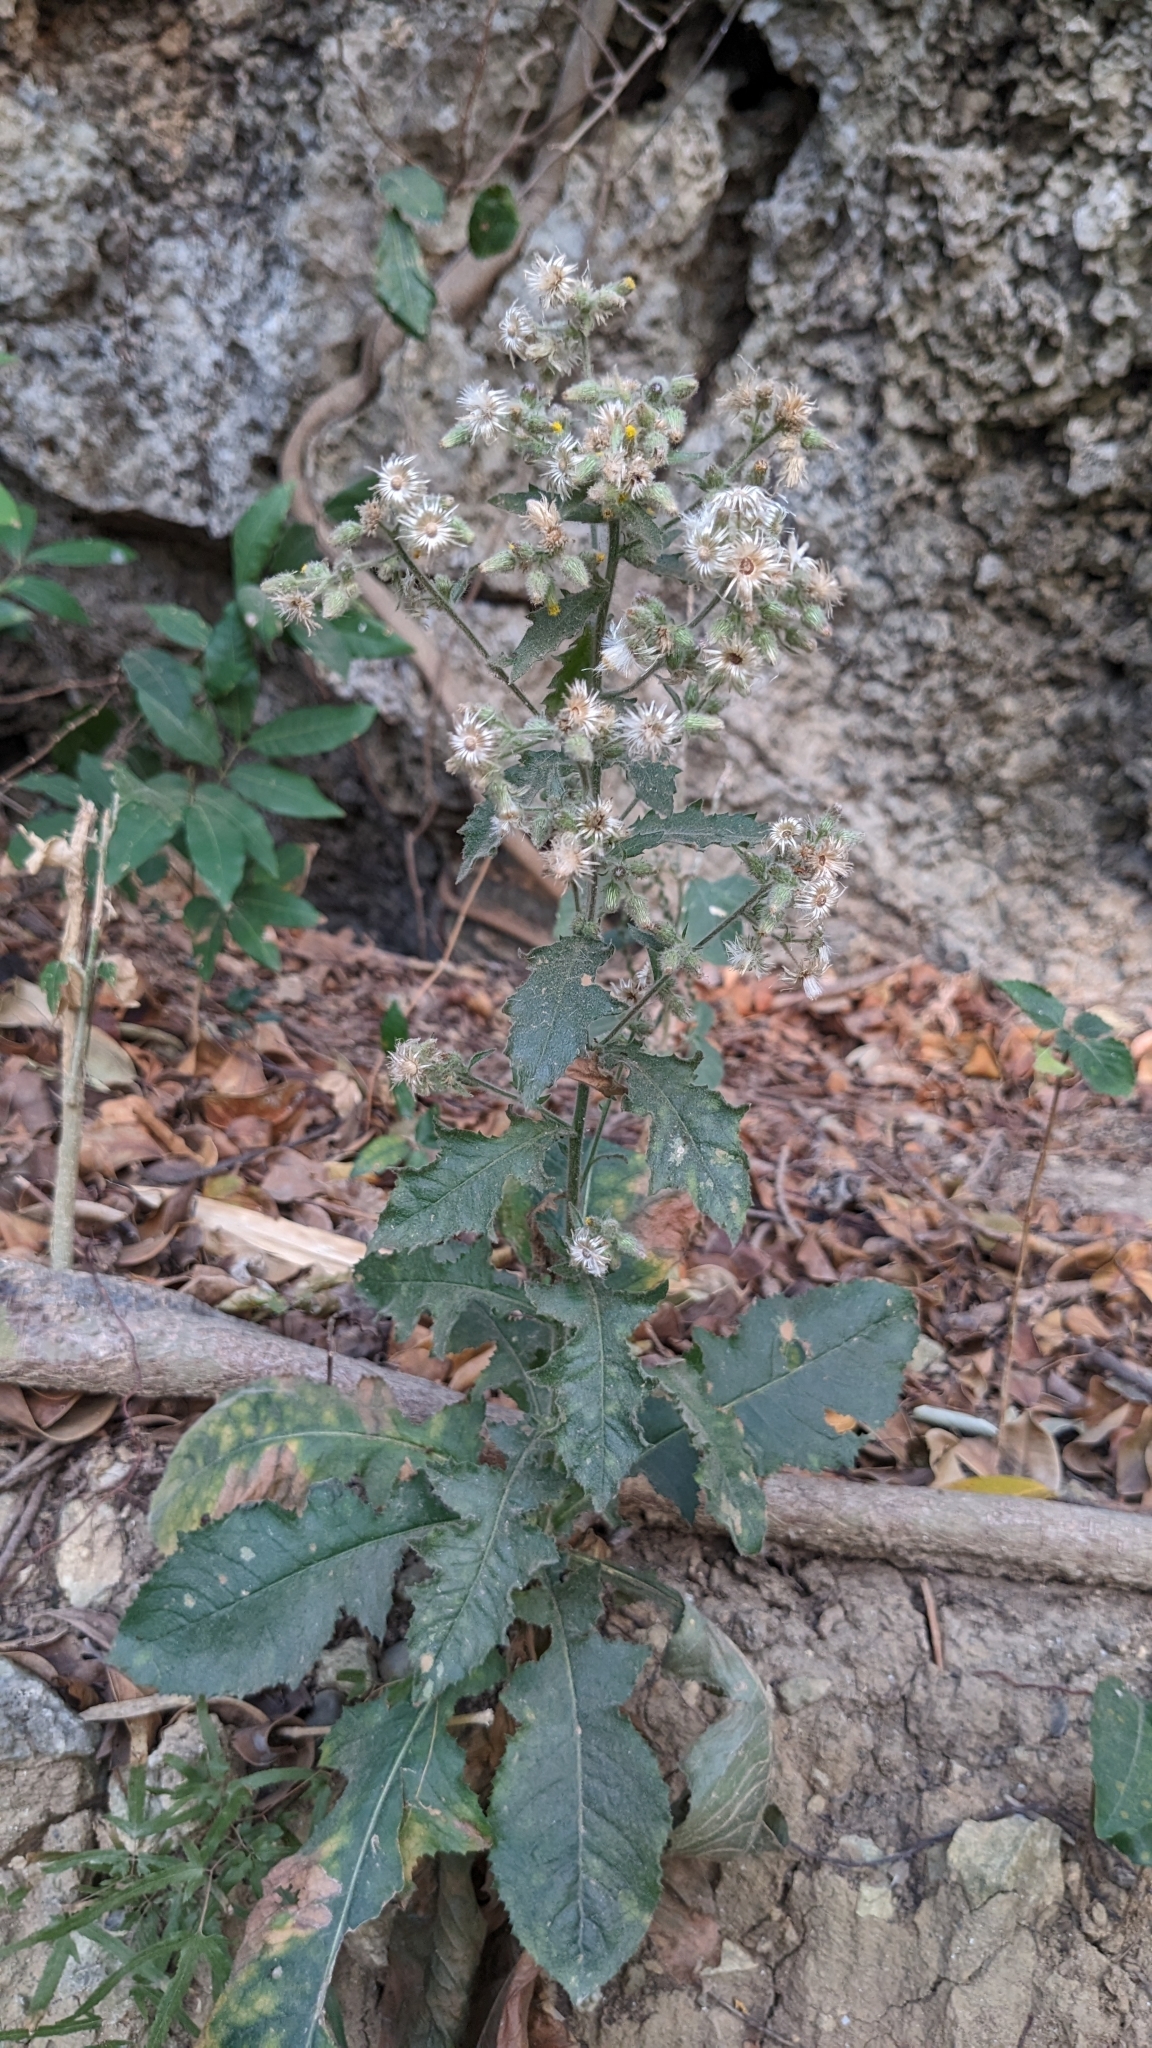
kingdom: Plantae
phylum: Tracheophyta
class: Magnoliopsida
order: Asterales
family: Asteraceae
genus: Blumea
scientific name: Blumea sinuata
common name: Cutleaf false oxtongue
